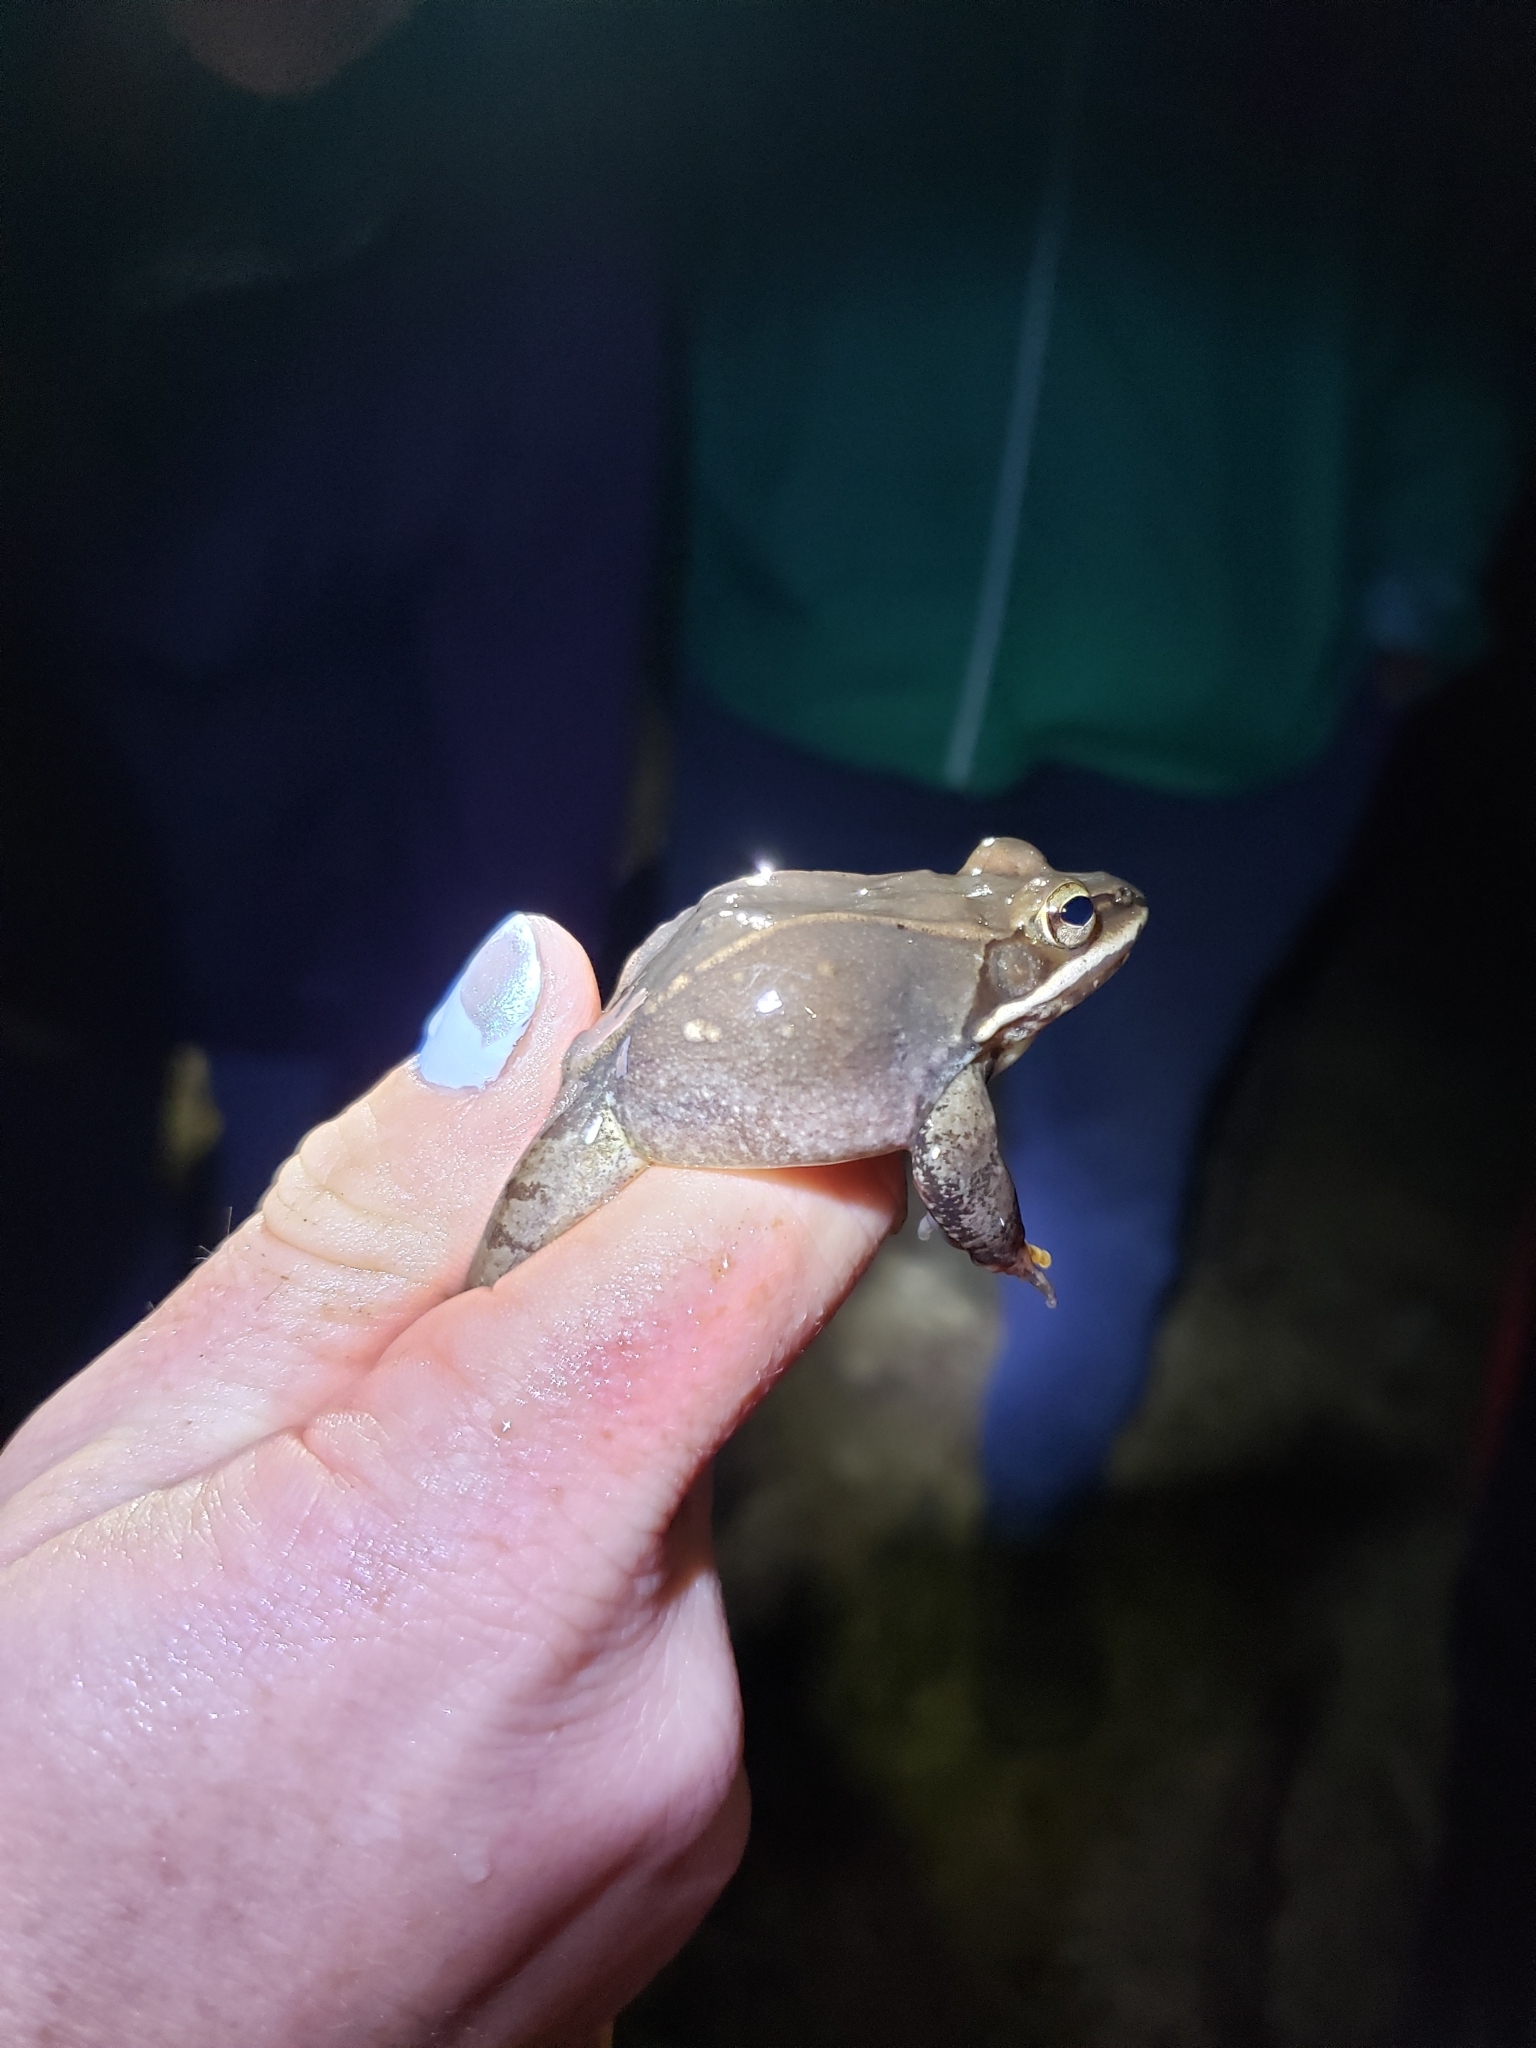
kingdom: Animalia
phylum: Chordata
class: Amphibia
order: Anura
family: Ranidae
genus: Lithobates
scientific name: Lithobates sylvaticus
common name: Wood frog
